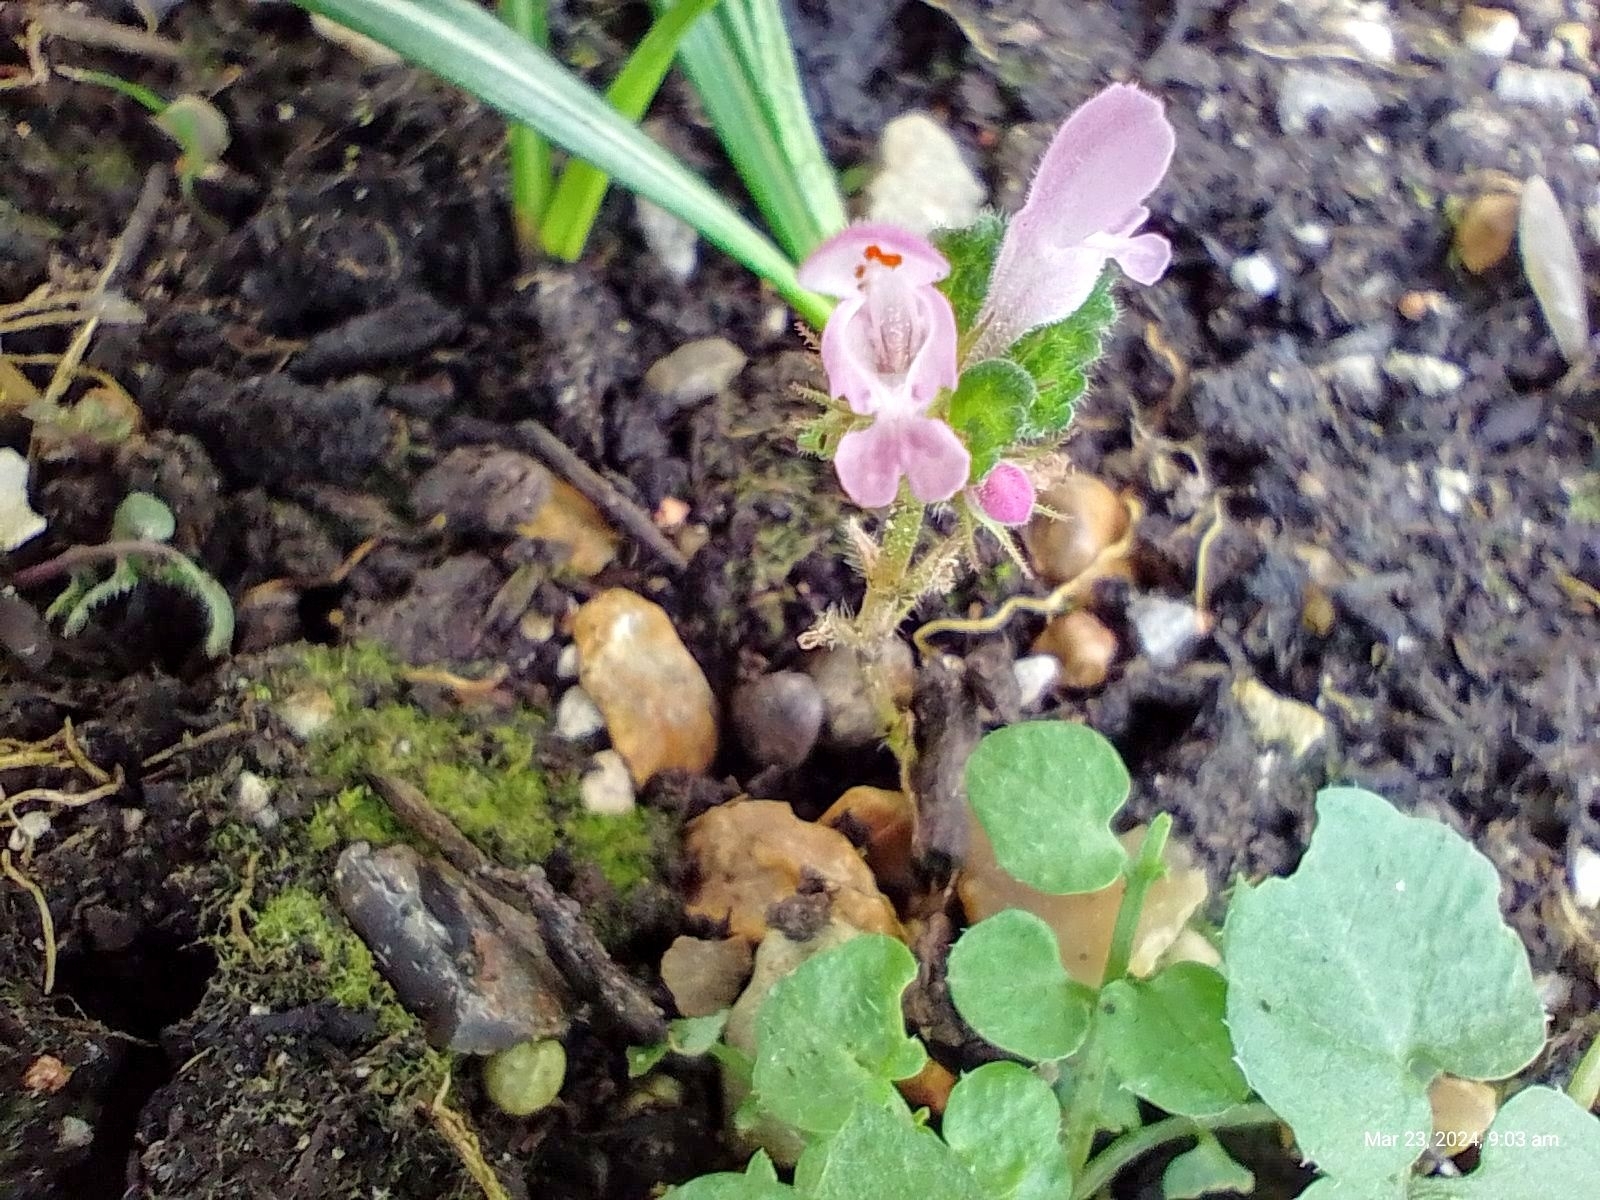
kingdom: Plantae
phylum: Tracheophyta
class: Magnoliopsida
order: Lamiales
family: Lamiaceae
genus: Lamium
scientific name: Lamium purpureum
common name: Red dead-nettle
